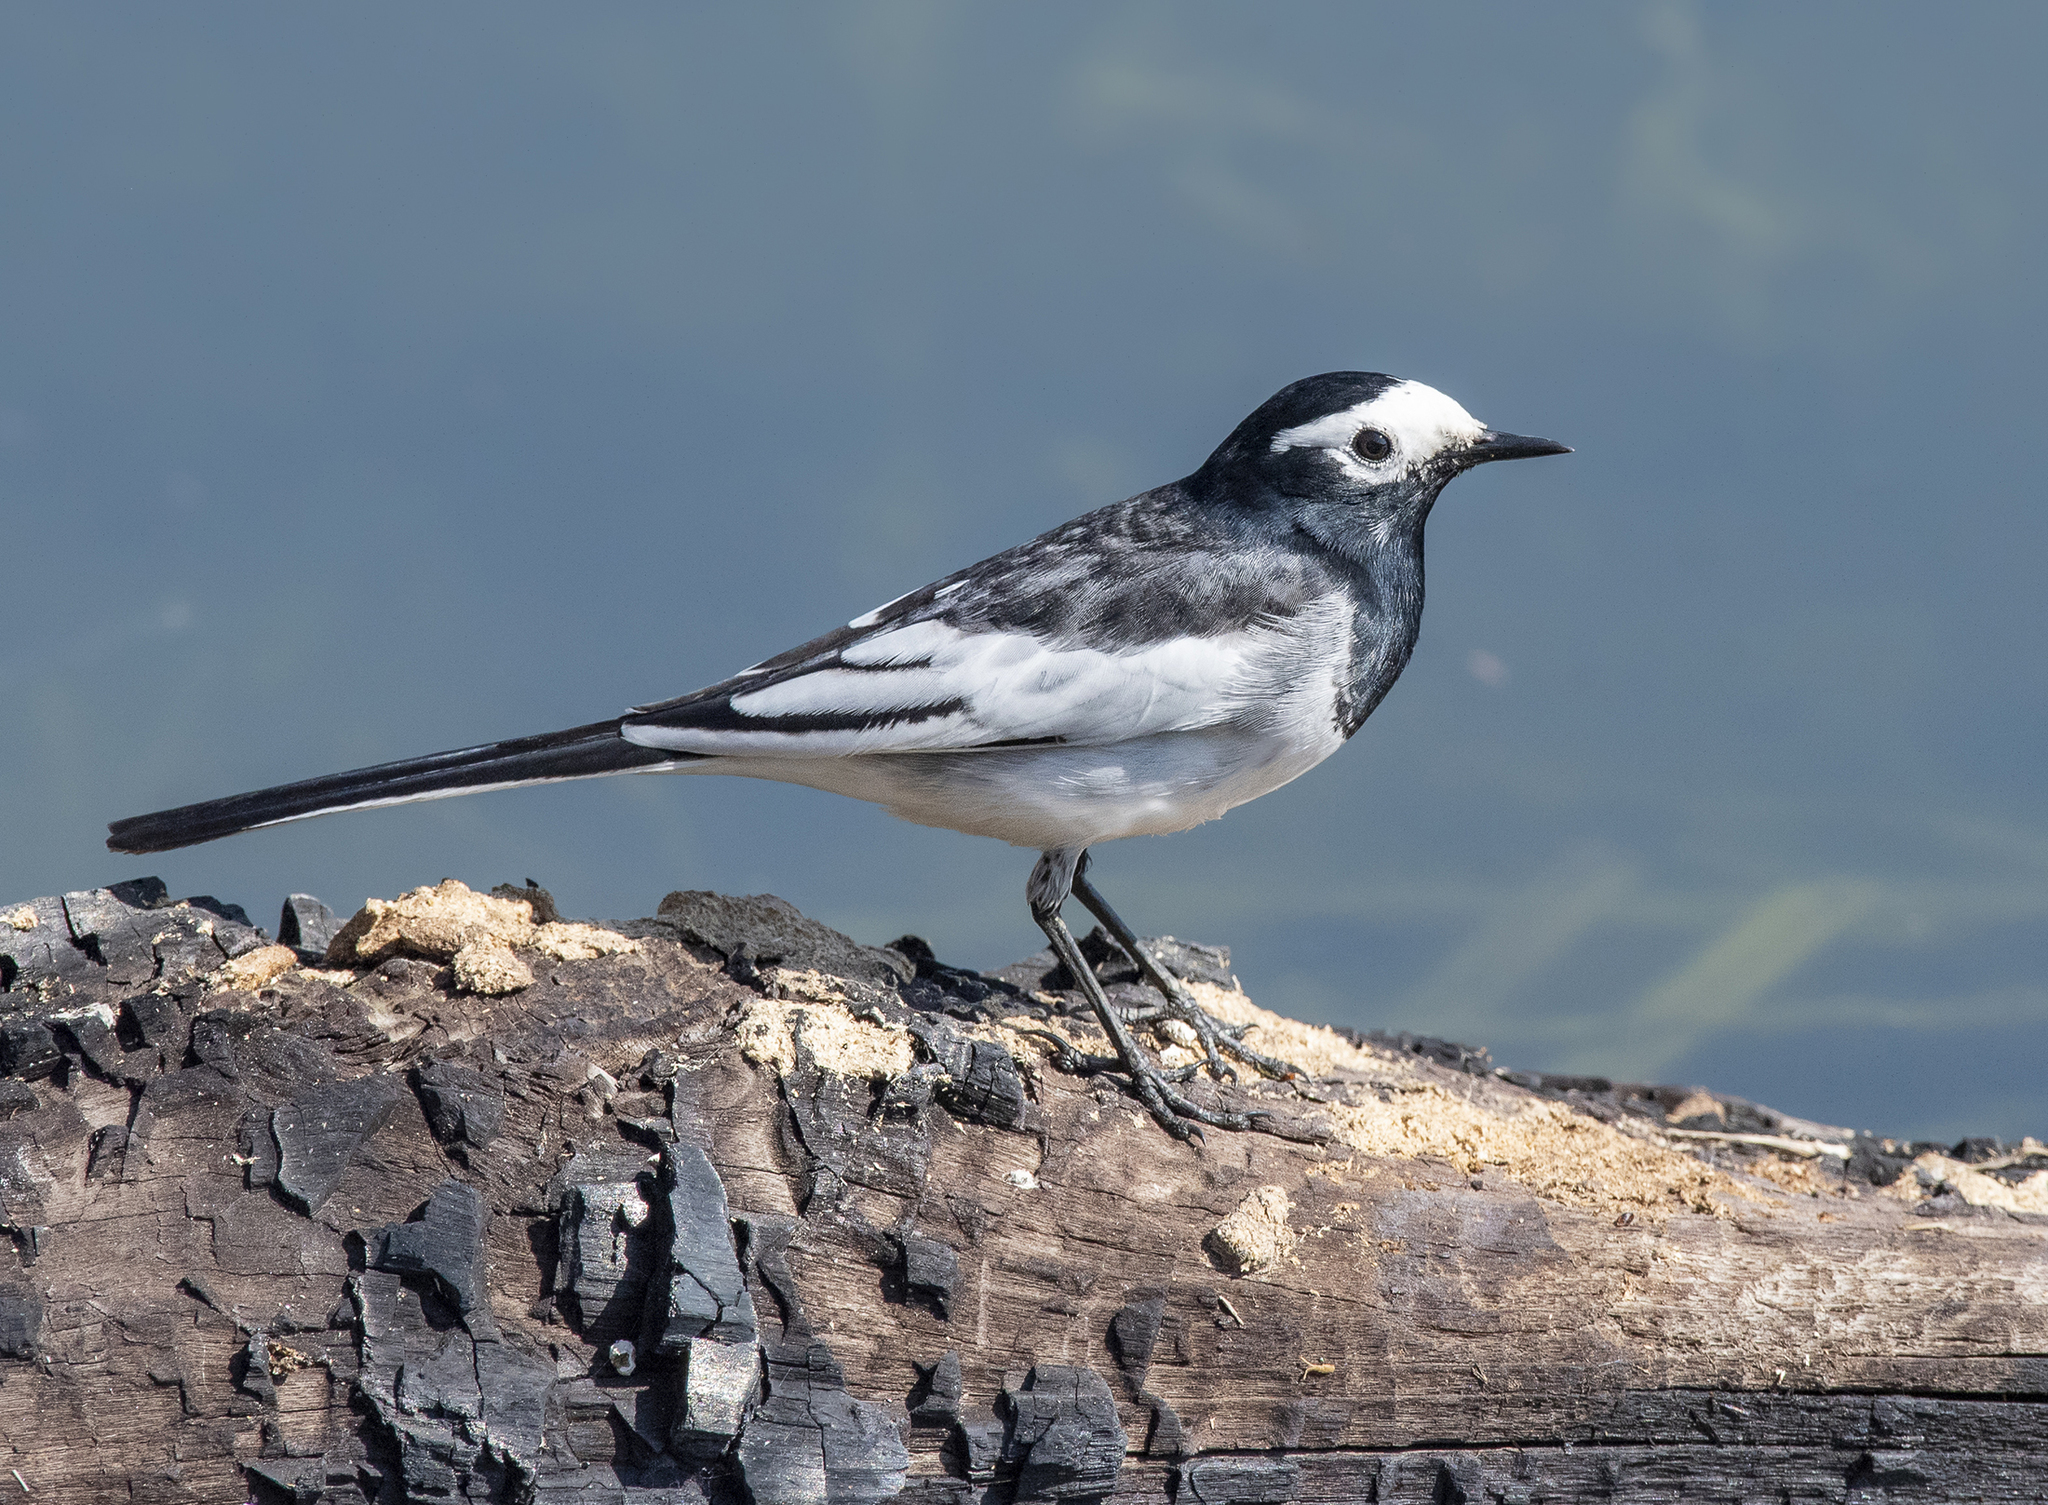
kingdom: Animalia
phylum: Chordata
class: Aves
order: Passeriformes
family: Motacillidae
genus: Motacilla
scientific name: Motacilla alba
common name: White wagtail
